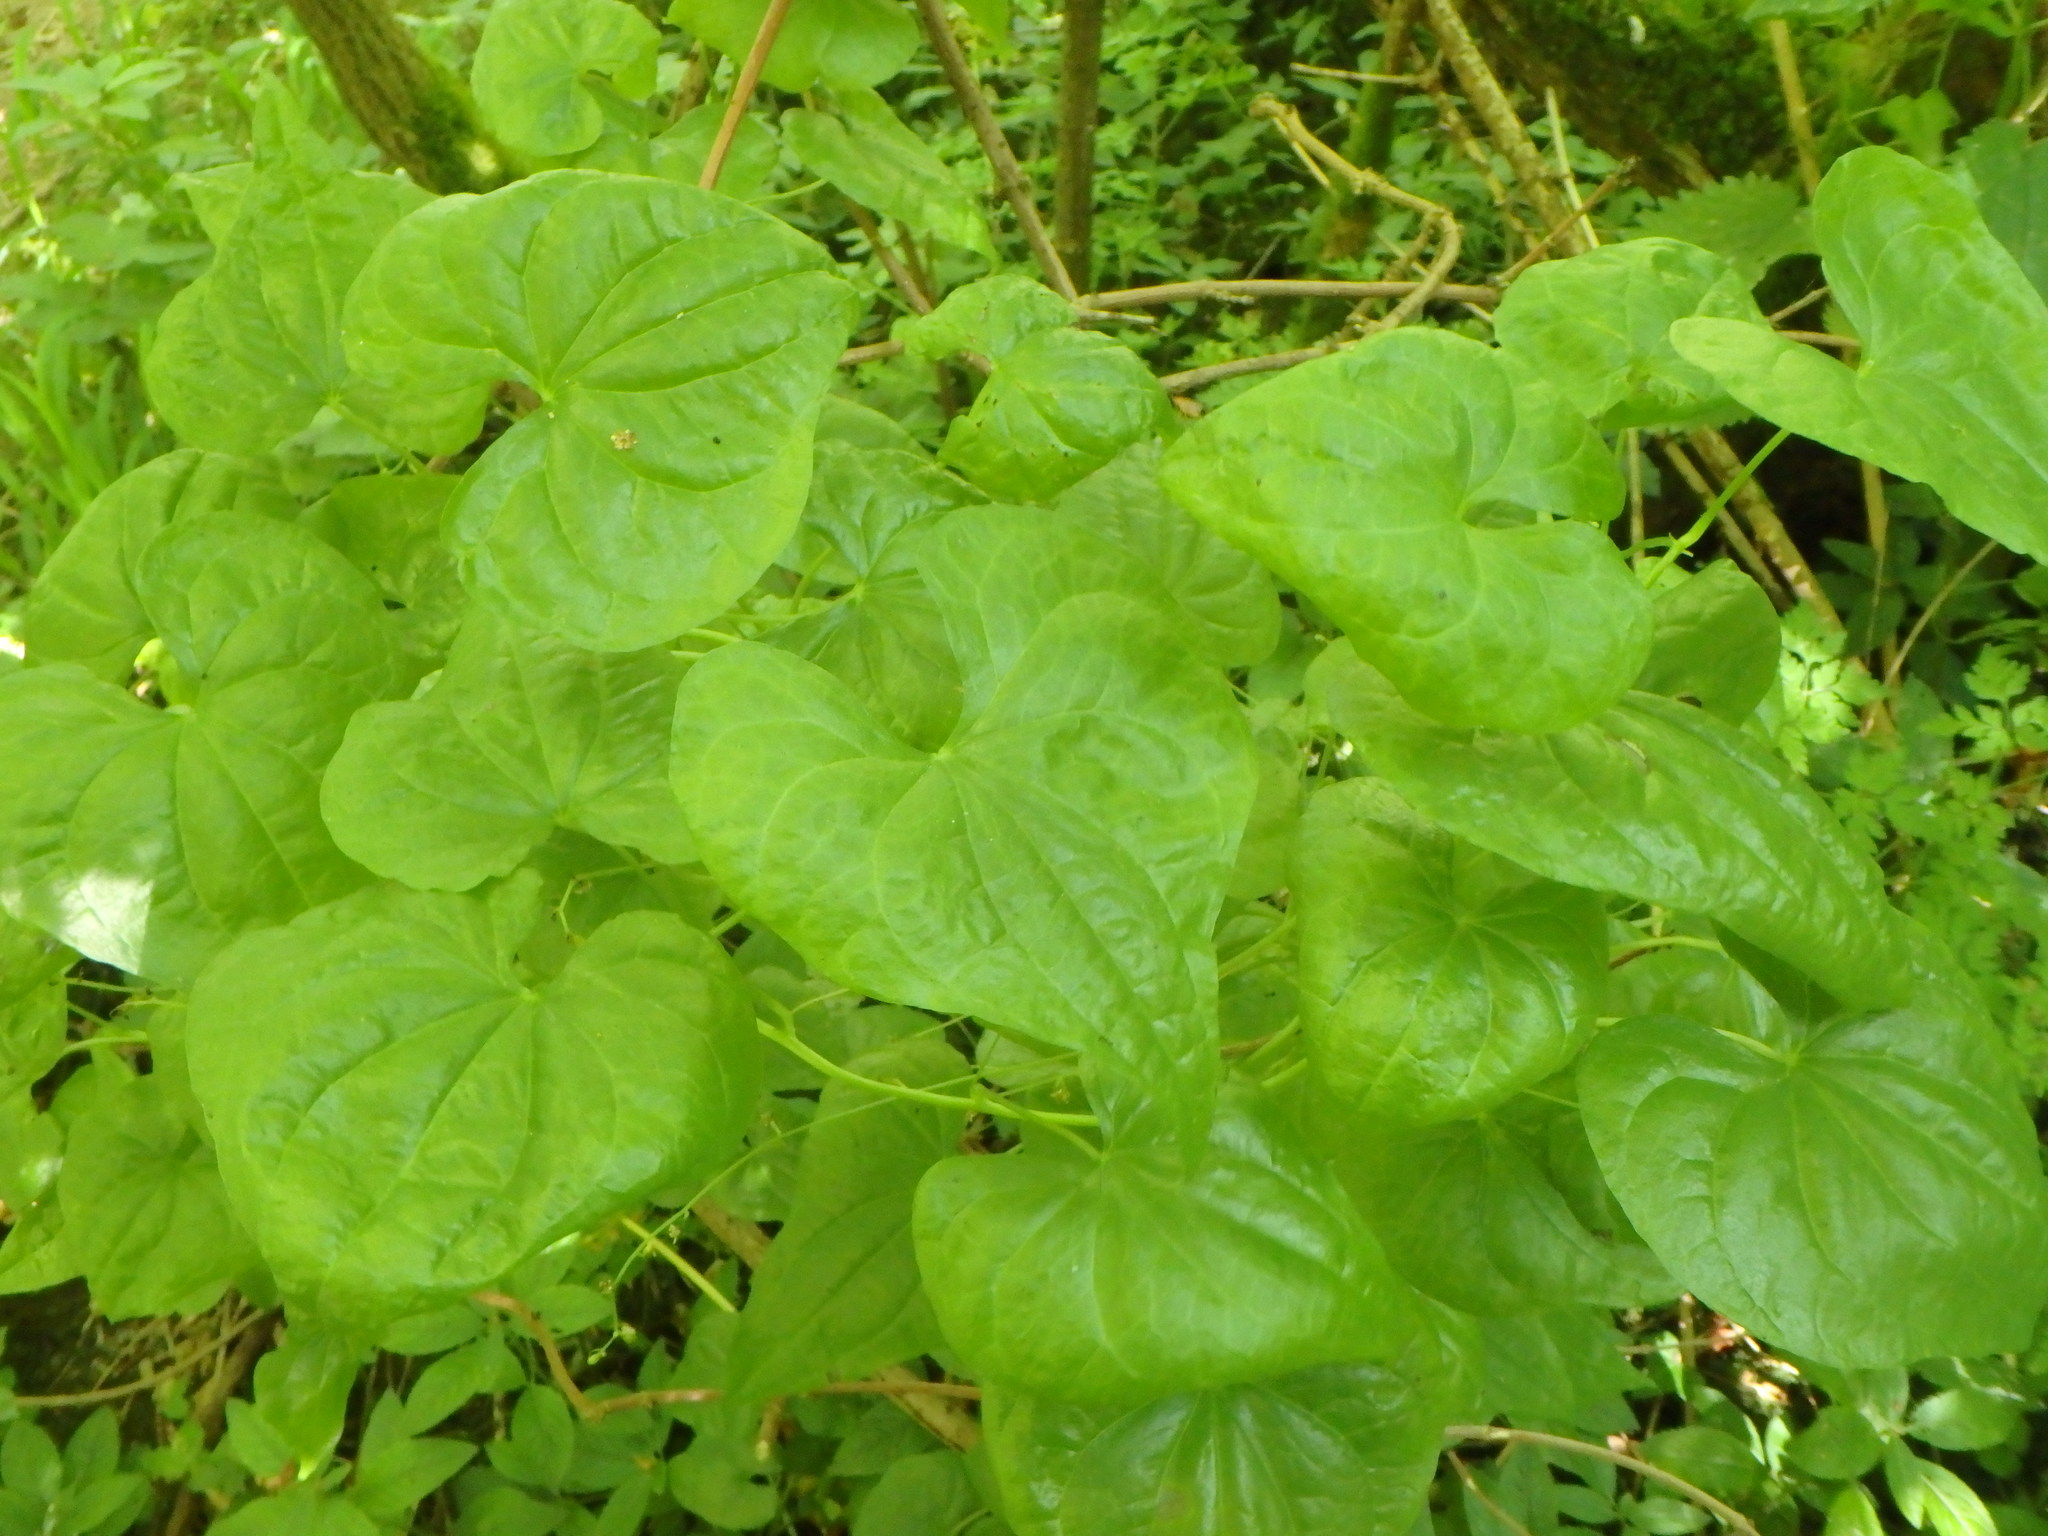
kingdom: Plantae
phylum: Tracheophyta
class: Liliopsida
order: Dioscoreales
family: Dioscoreaceae
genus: Dioscorea
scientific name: Dioscorea communis
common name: Black-bindweed
